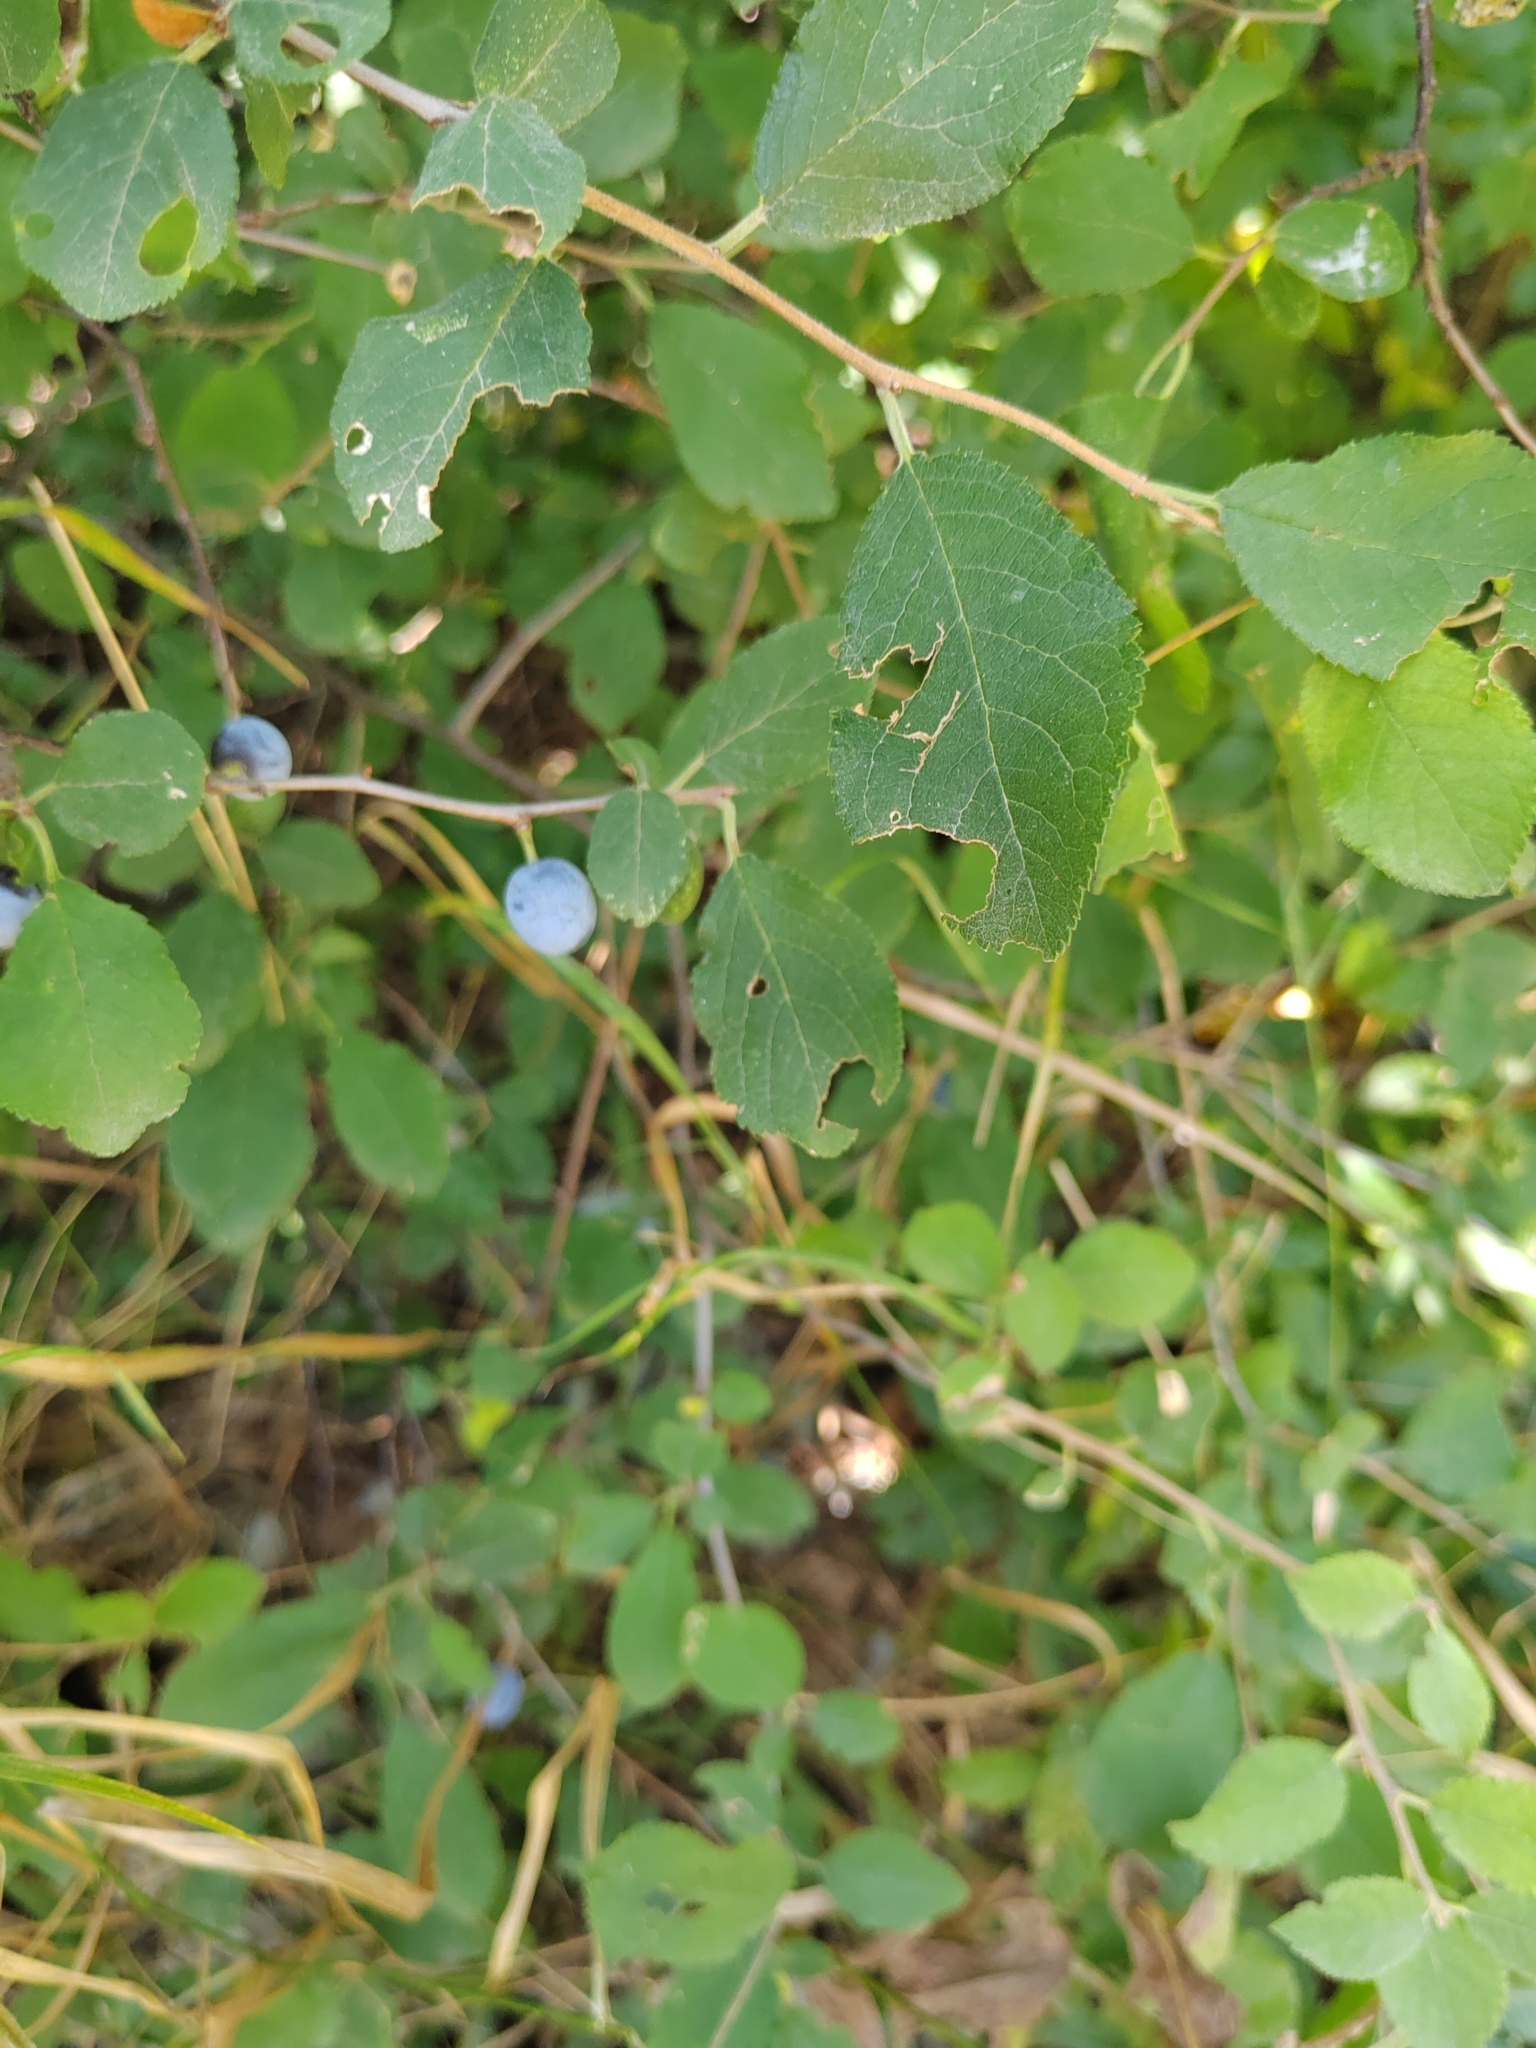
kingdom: Plantae
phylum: Tracheophyta
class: Magnoliopsida
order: Rosales
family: Rosaceae
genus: Prunus
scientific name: Prunus spinosa
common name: Blackthorn
